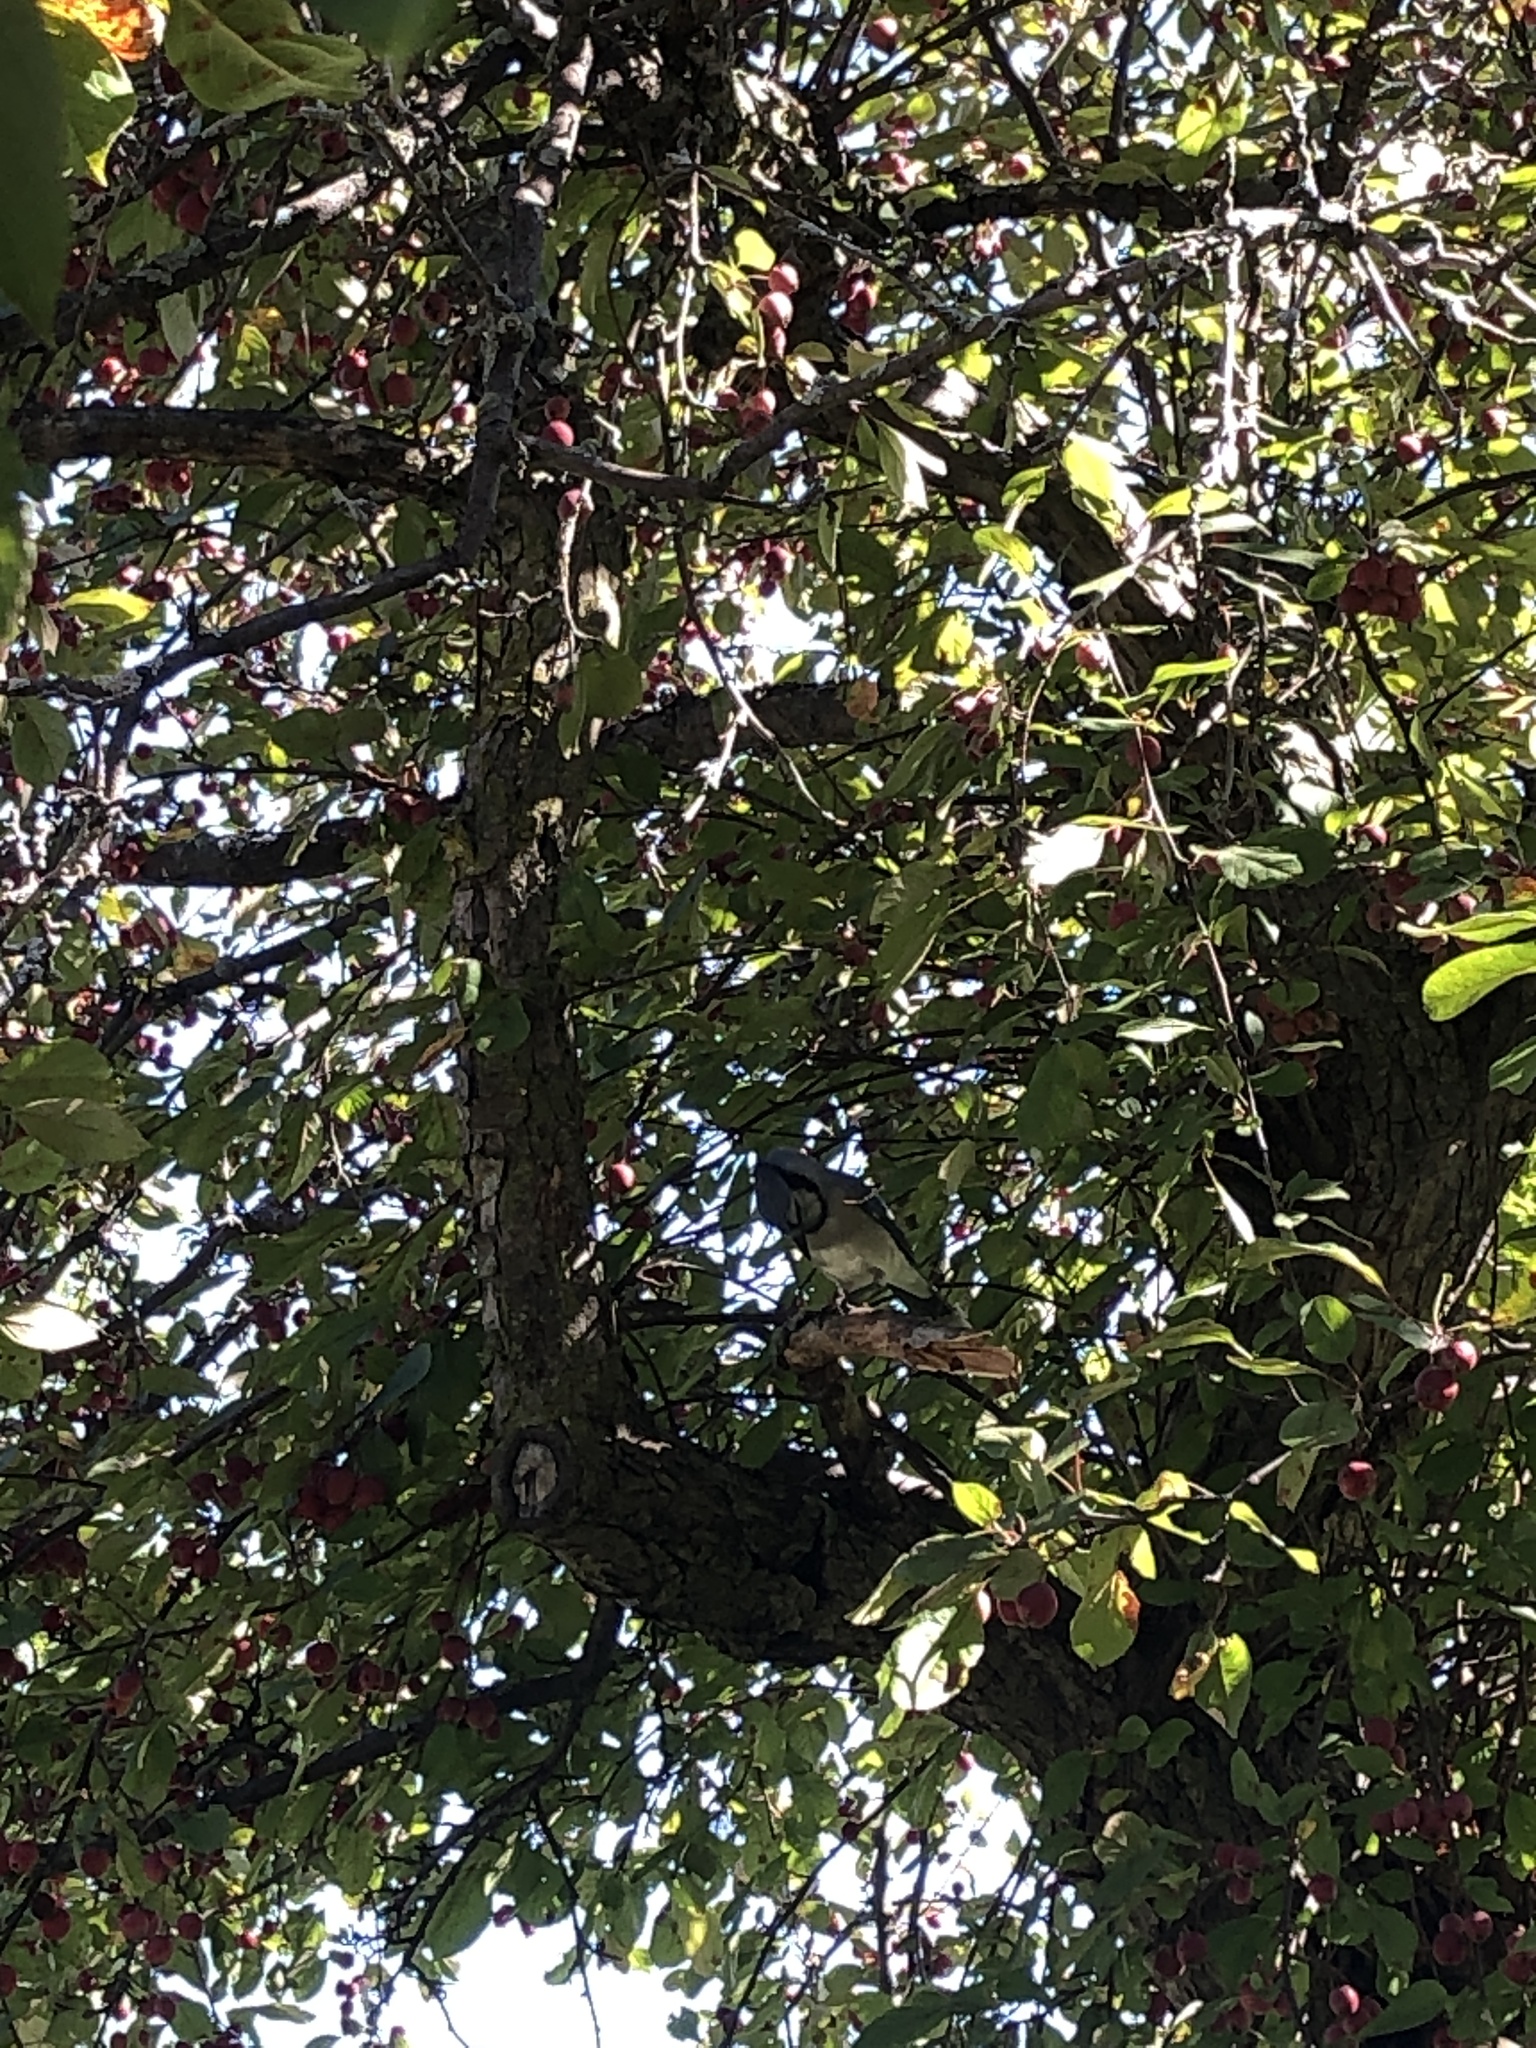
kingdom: Animalia
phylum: Chordata
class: Aves
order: Passeriformes
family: Corvidae
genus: Cyanocitta
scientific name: Cyanocitta cristata
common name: Blue jay
